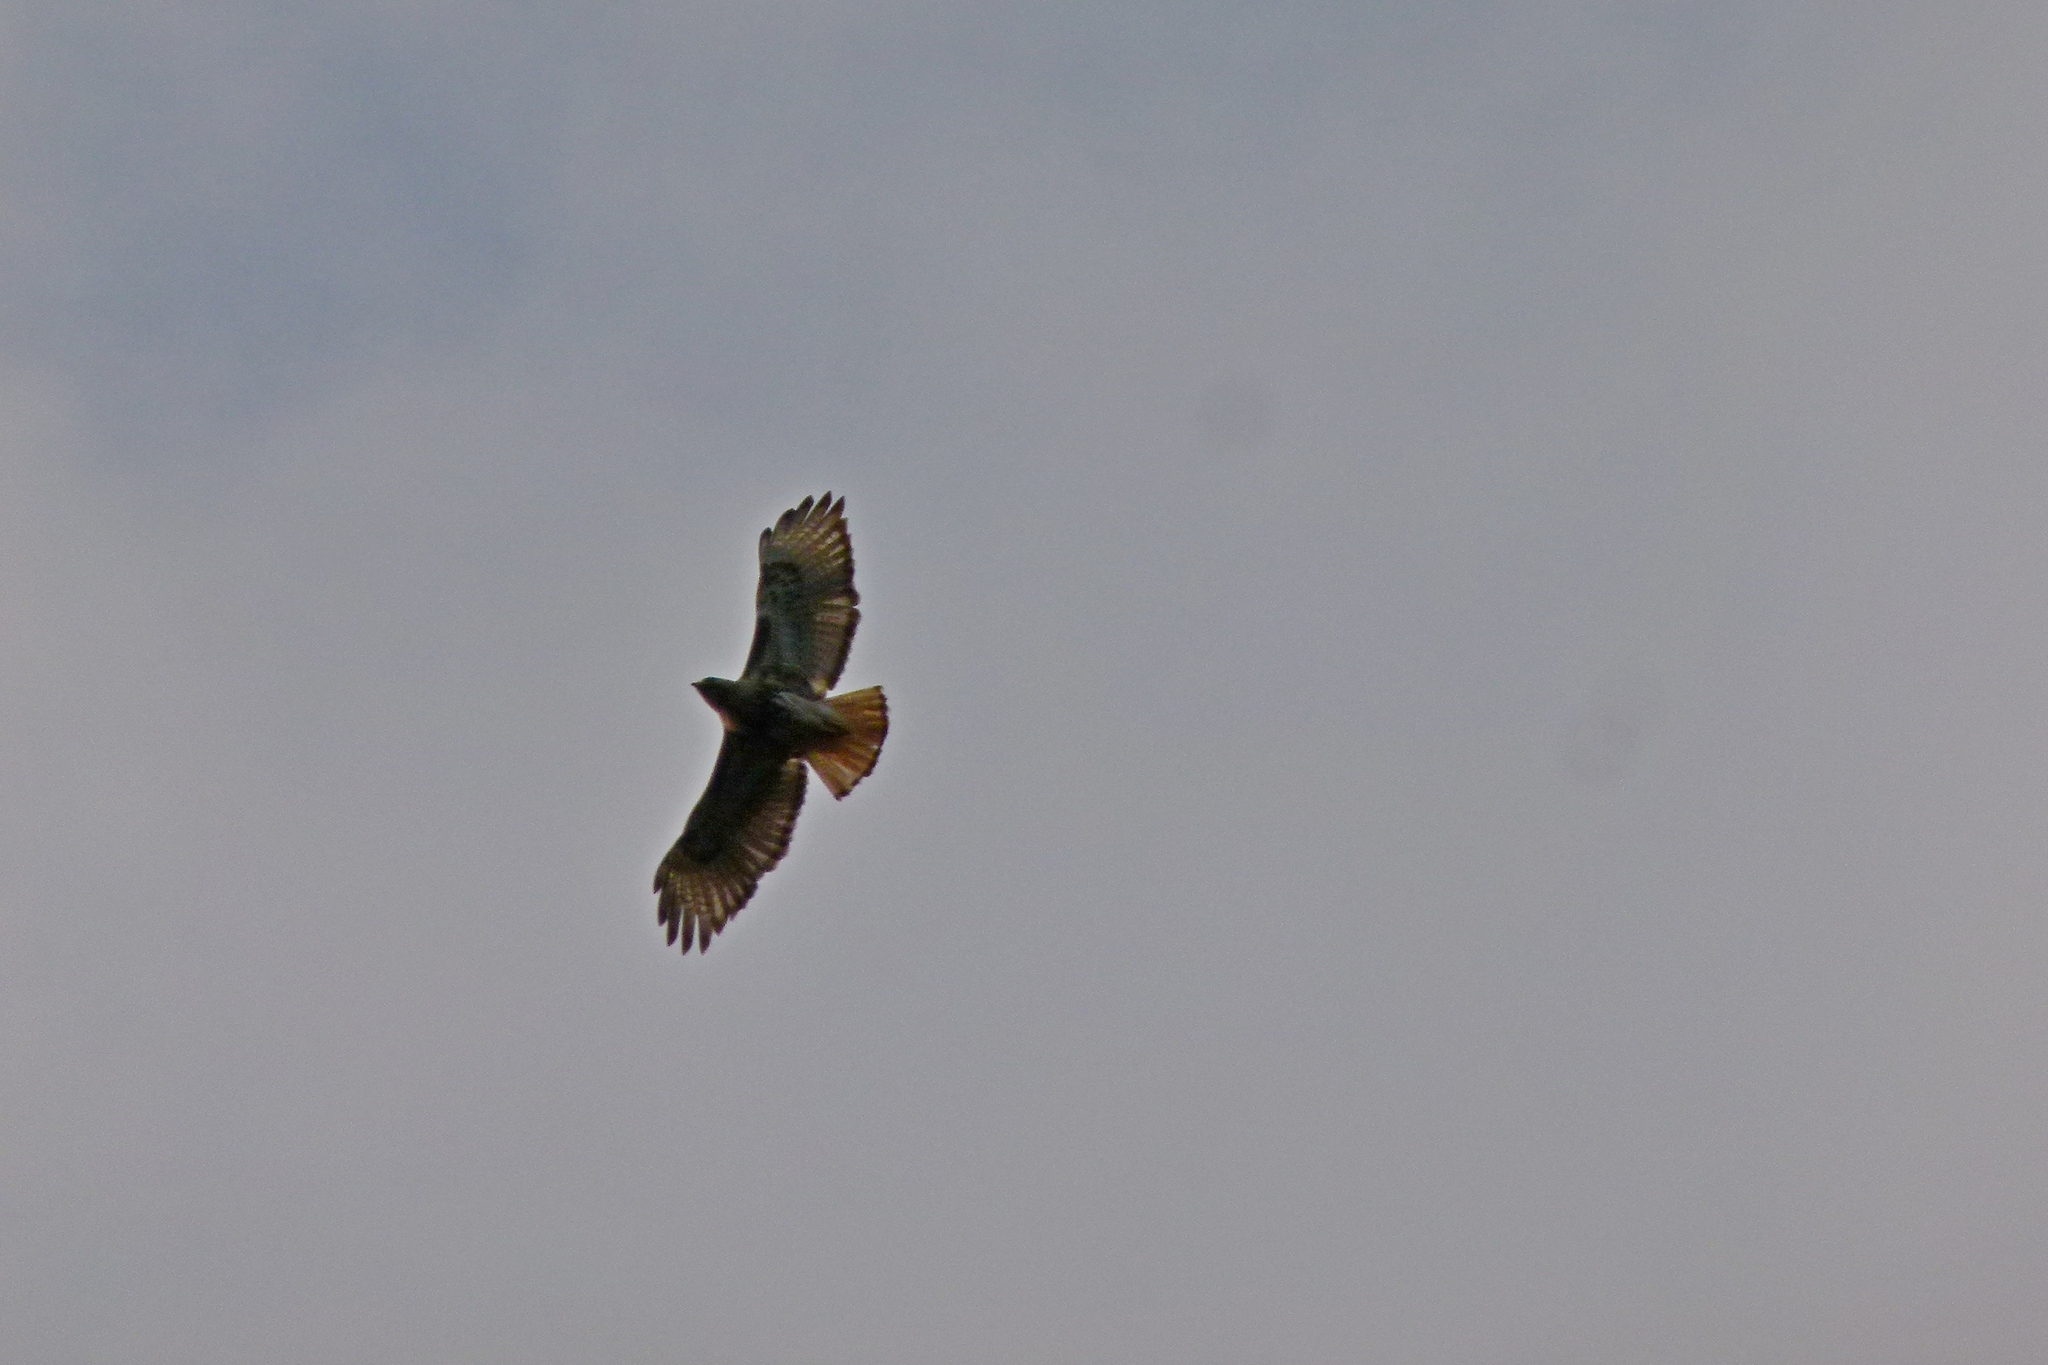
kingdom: Animalia
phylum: Chordata
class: Aves
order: Accipitriformes
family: Accipitridae
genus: Buteo
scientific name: Buteo jamaicensis
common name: Red-tailed hawk
